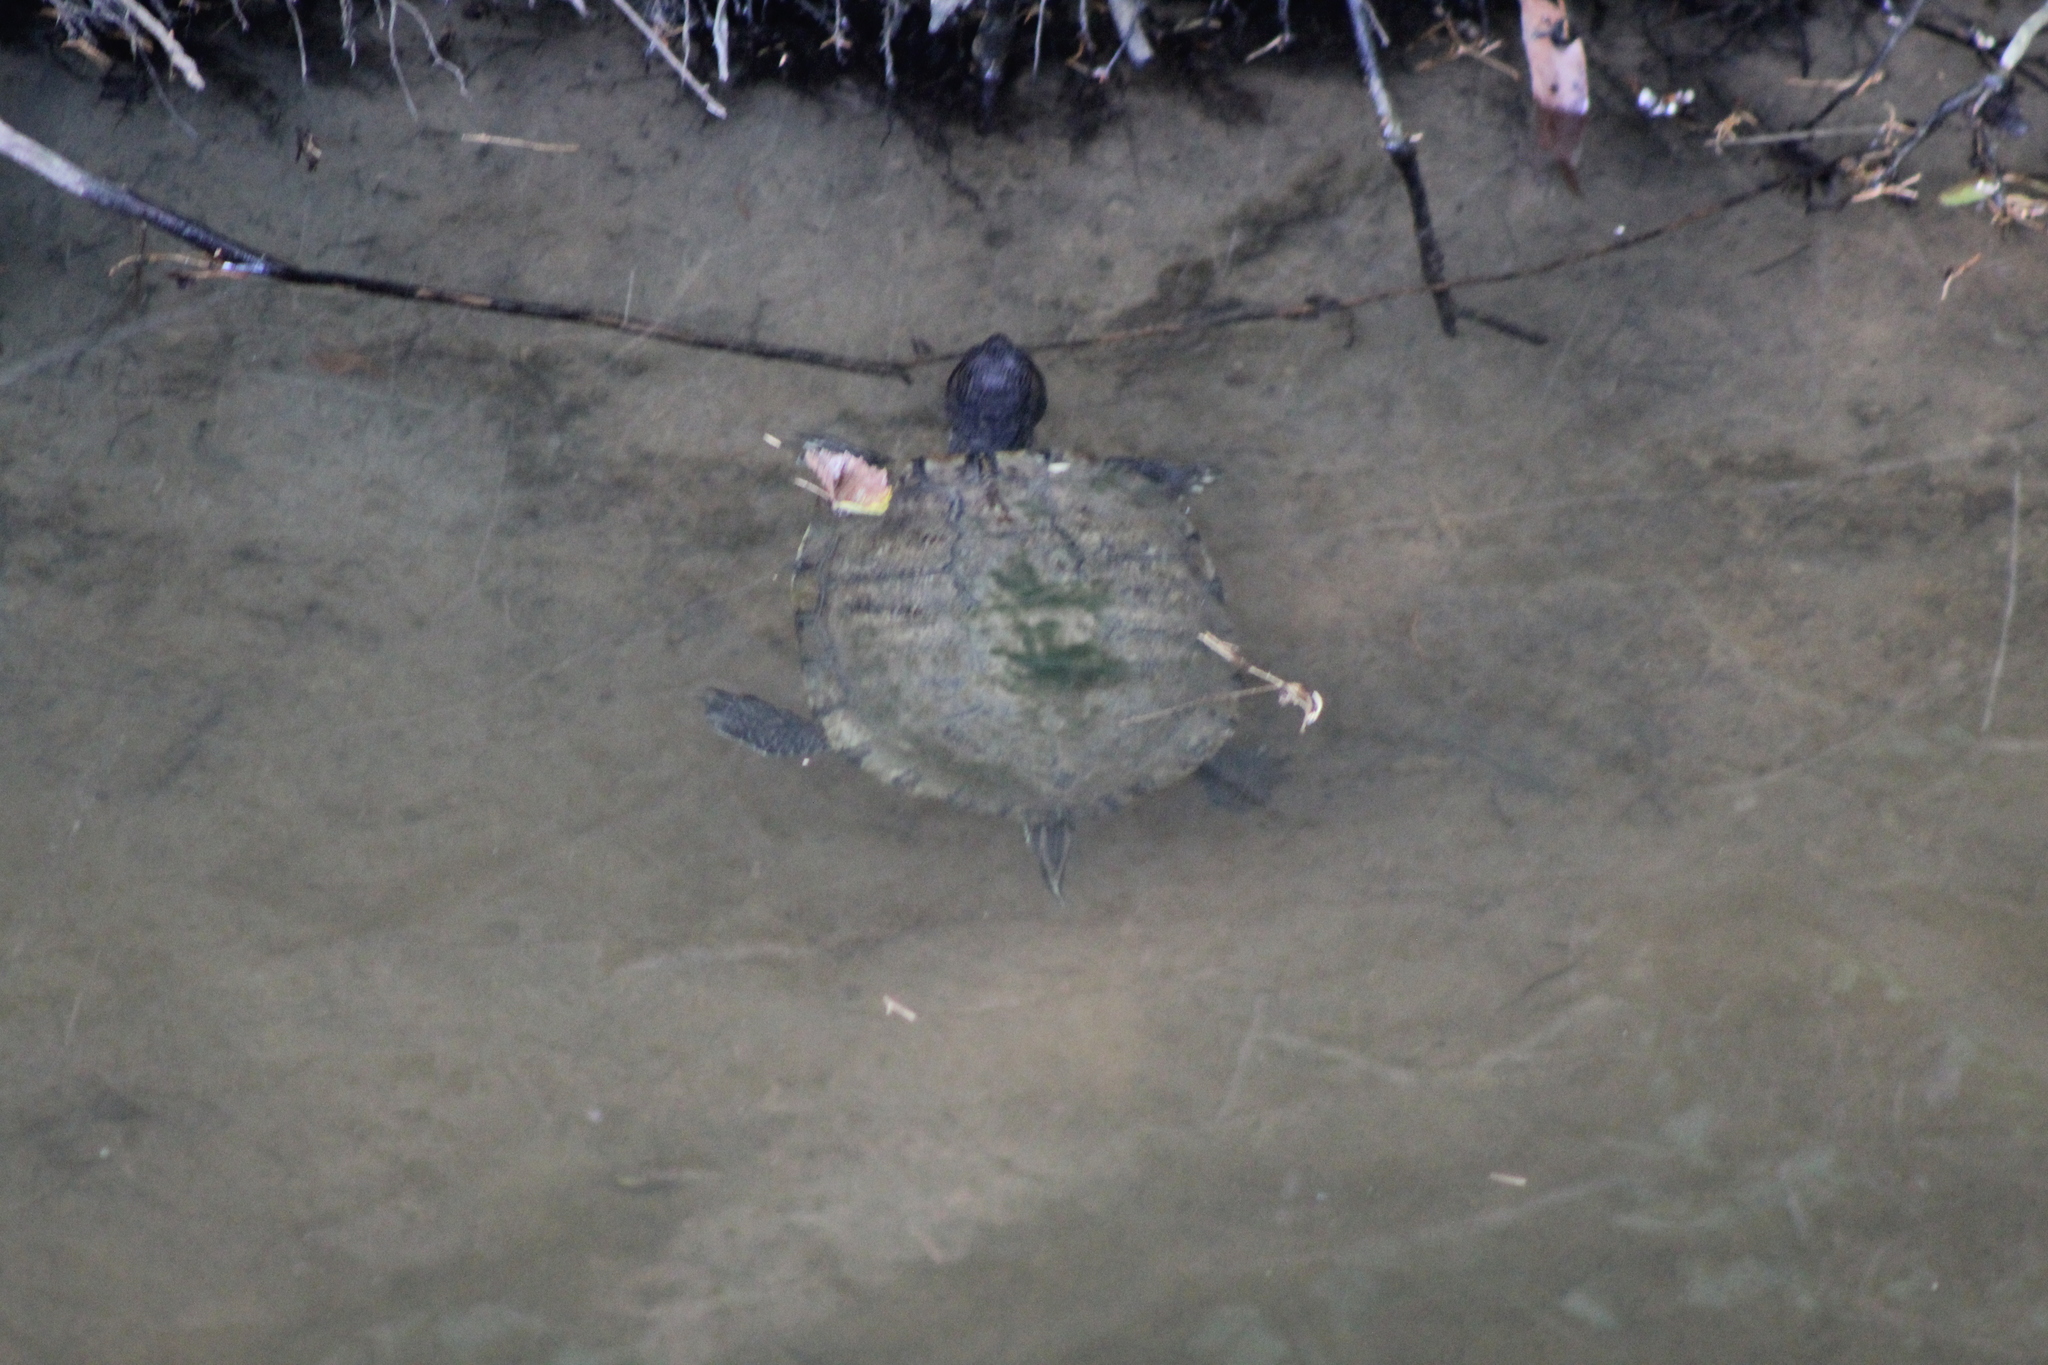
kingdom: Animalia
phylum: Chordata
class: Testudines
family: Emydidae
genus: Trachemys
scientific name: Trachemys scripta
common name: Slider
